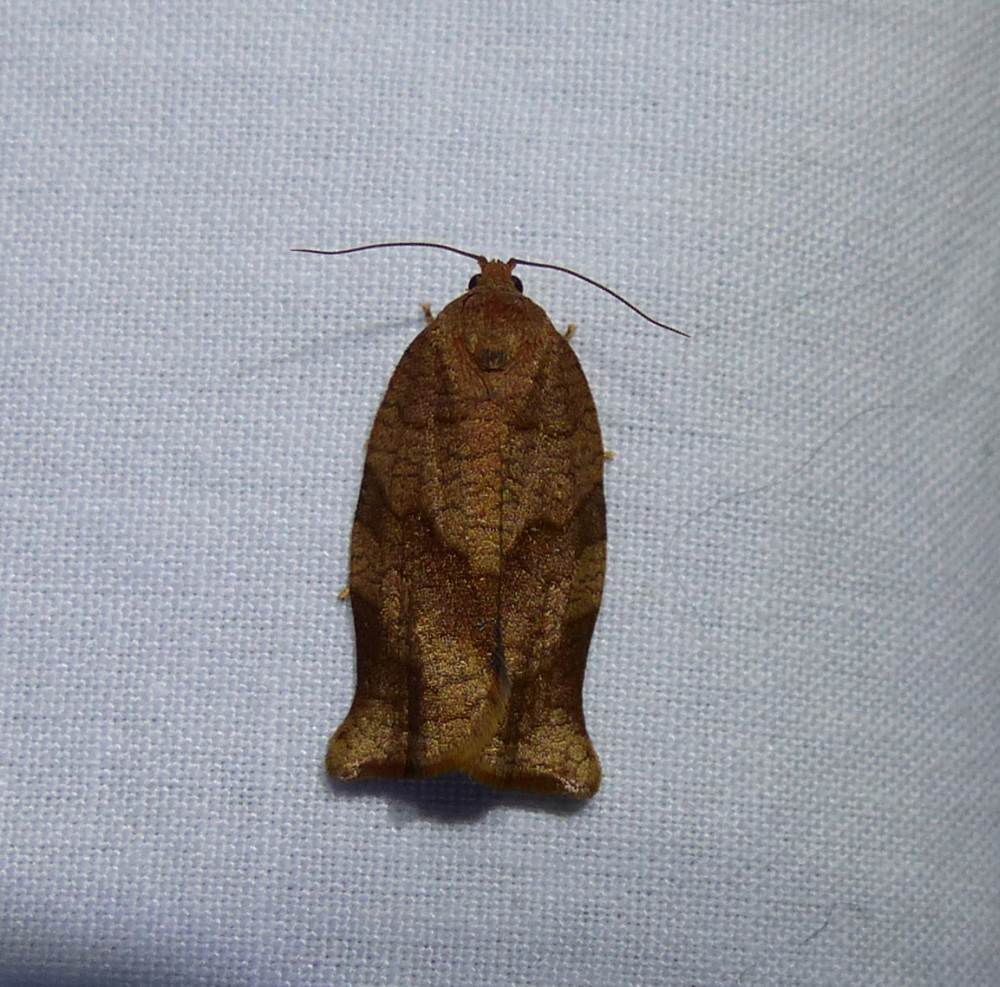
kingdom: Animalia
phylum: Arthropoda
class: Insecta
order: Lepidoptera
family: Tortricidae
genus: Choristoneura
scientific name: Choristoneura rosaceana
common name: Oblique-banded leafroller moth
